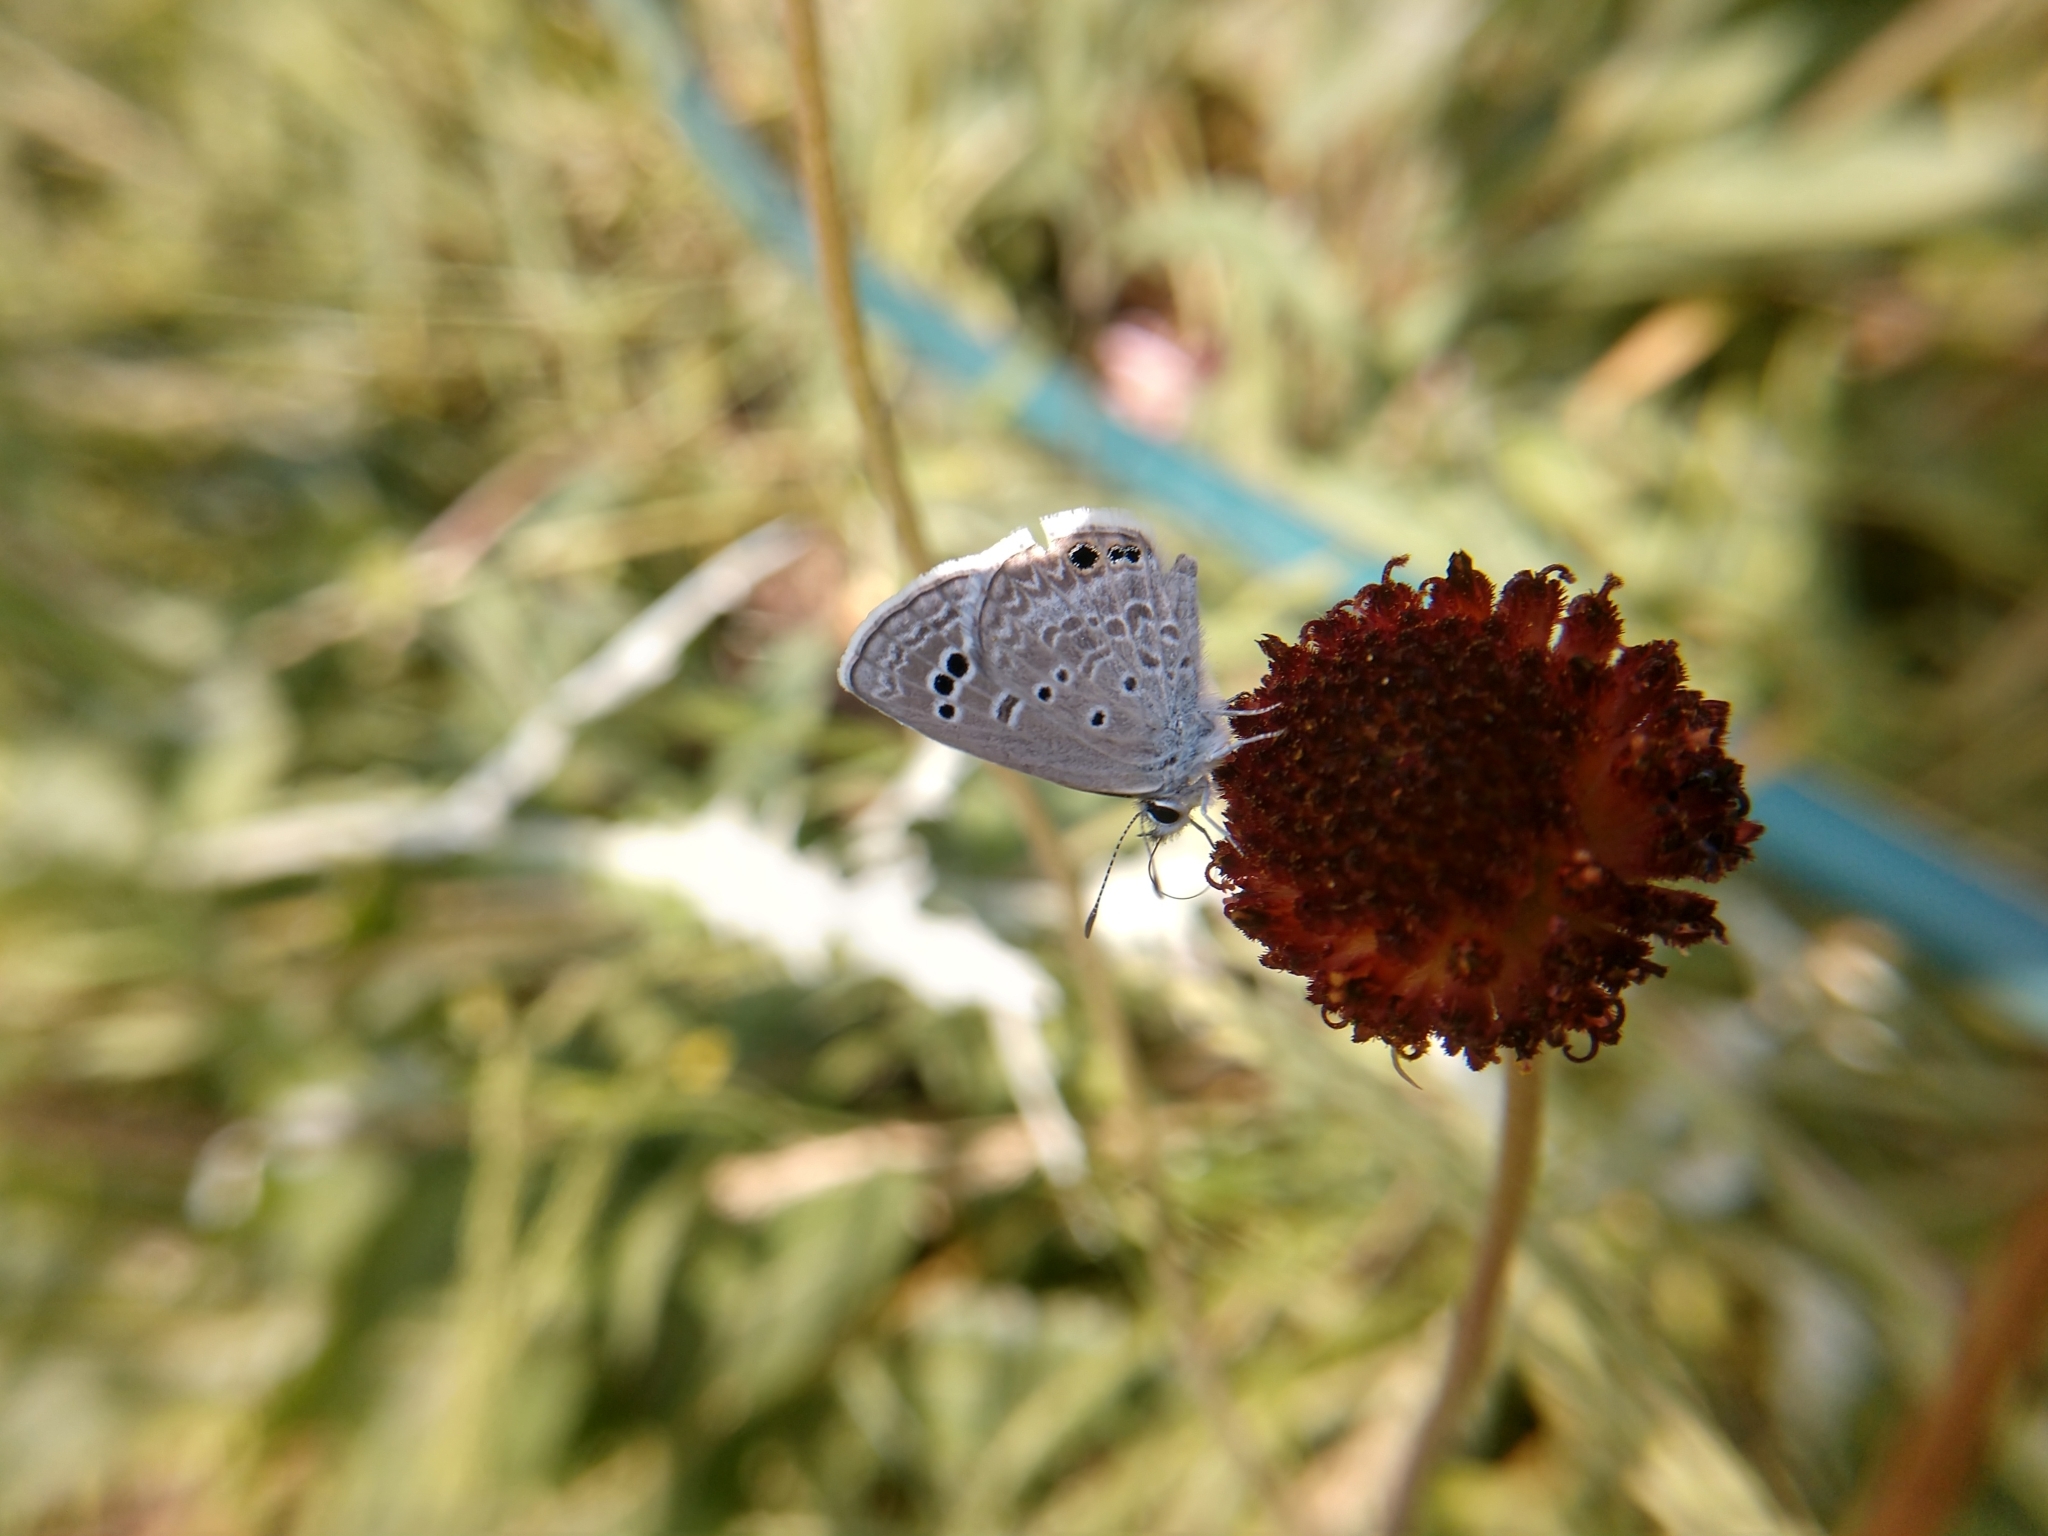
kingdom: Animalia
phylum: Arthropoda
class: Insecta
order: Lepidoptera
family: Lycaenidae
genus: Echinargus
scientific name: Echinargus isola
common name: Reakirt's blue
